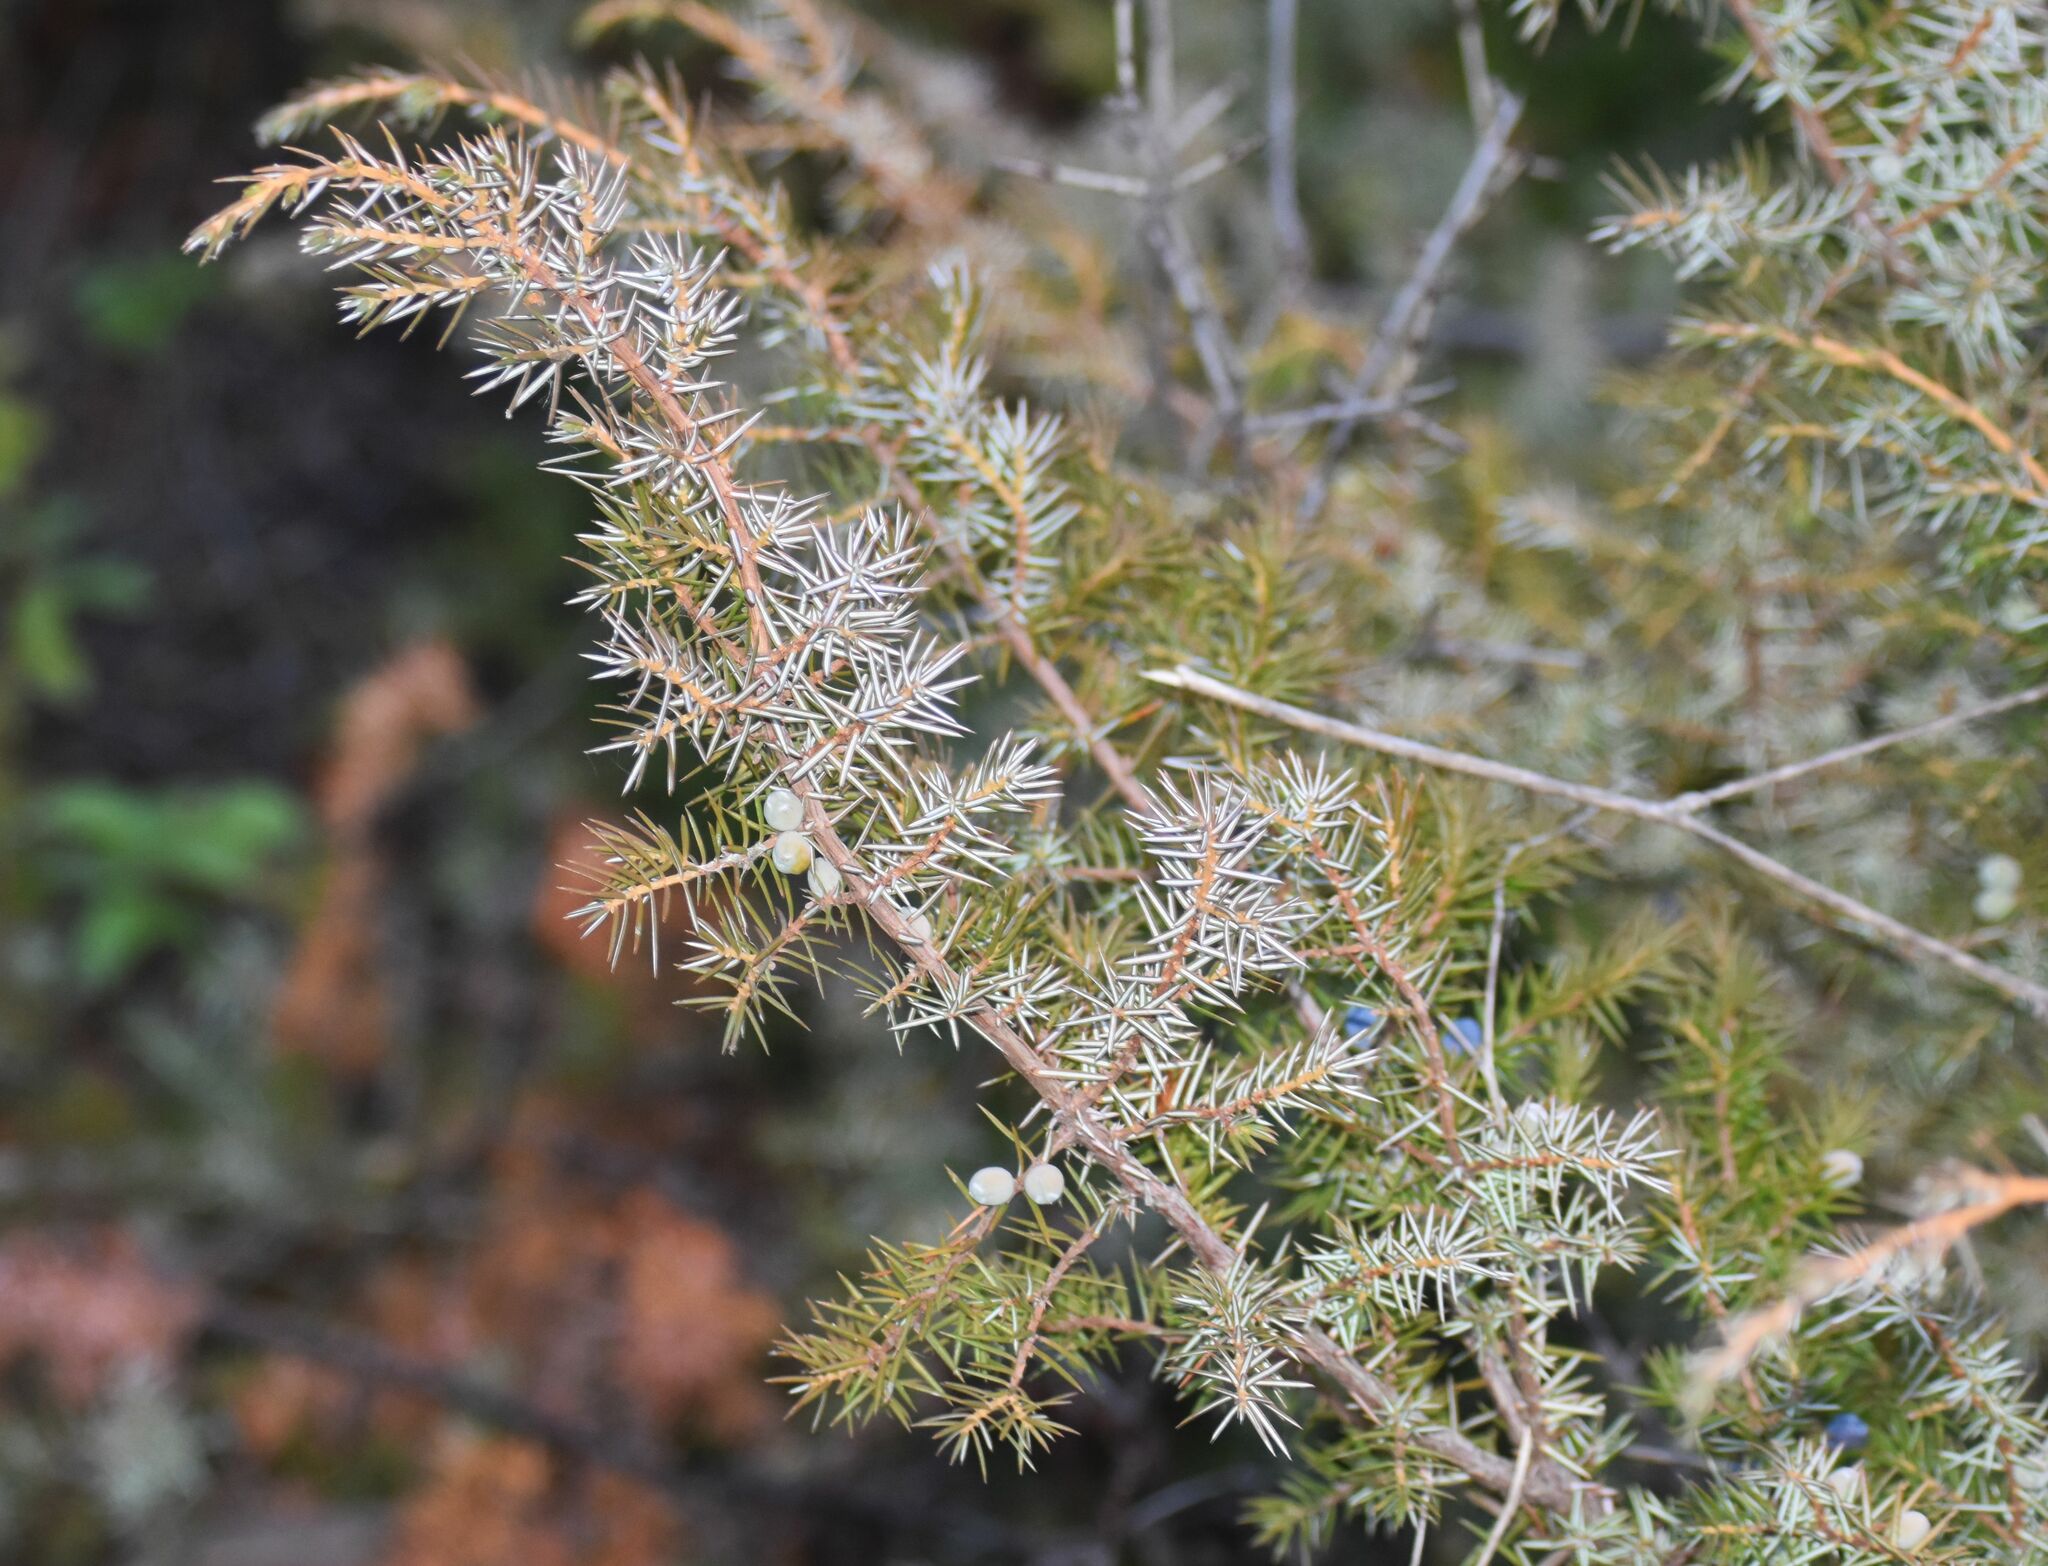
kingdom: Plantae
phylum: Tracheophyta
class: Pinopsida
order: Pinales
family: Cupressaceae
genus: Juniperus
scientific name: Juniperus communis
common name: Common juniper
